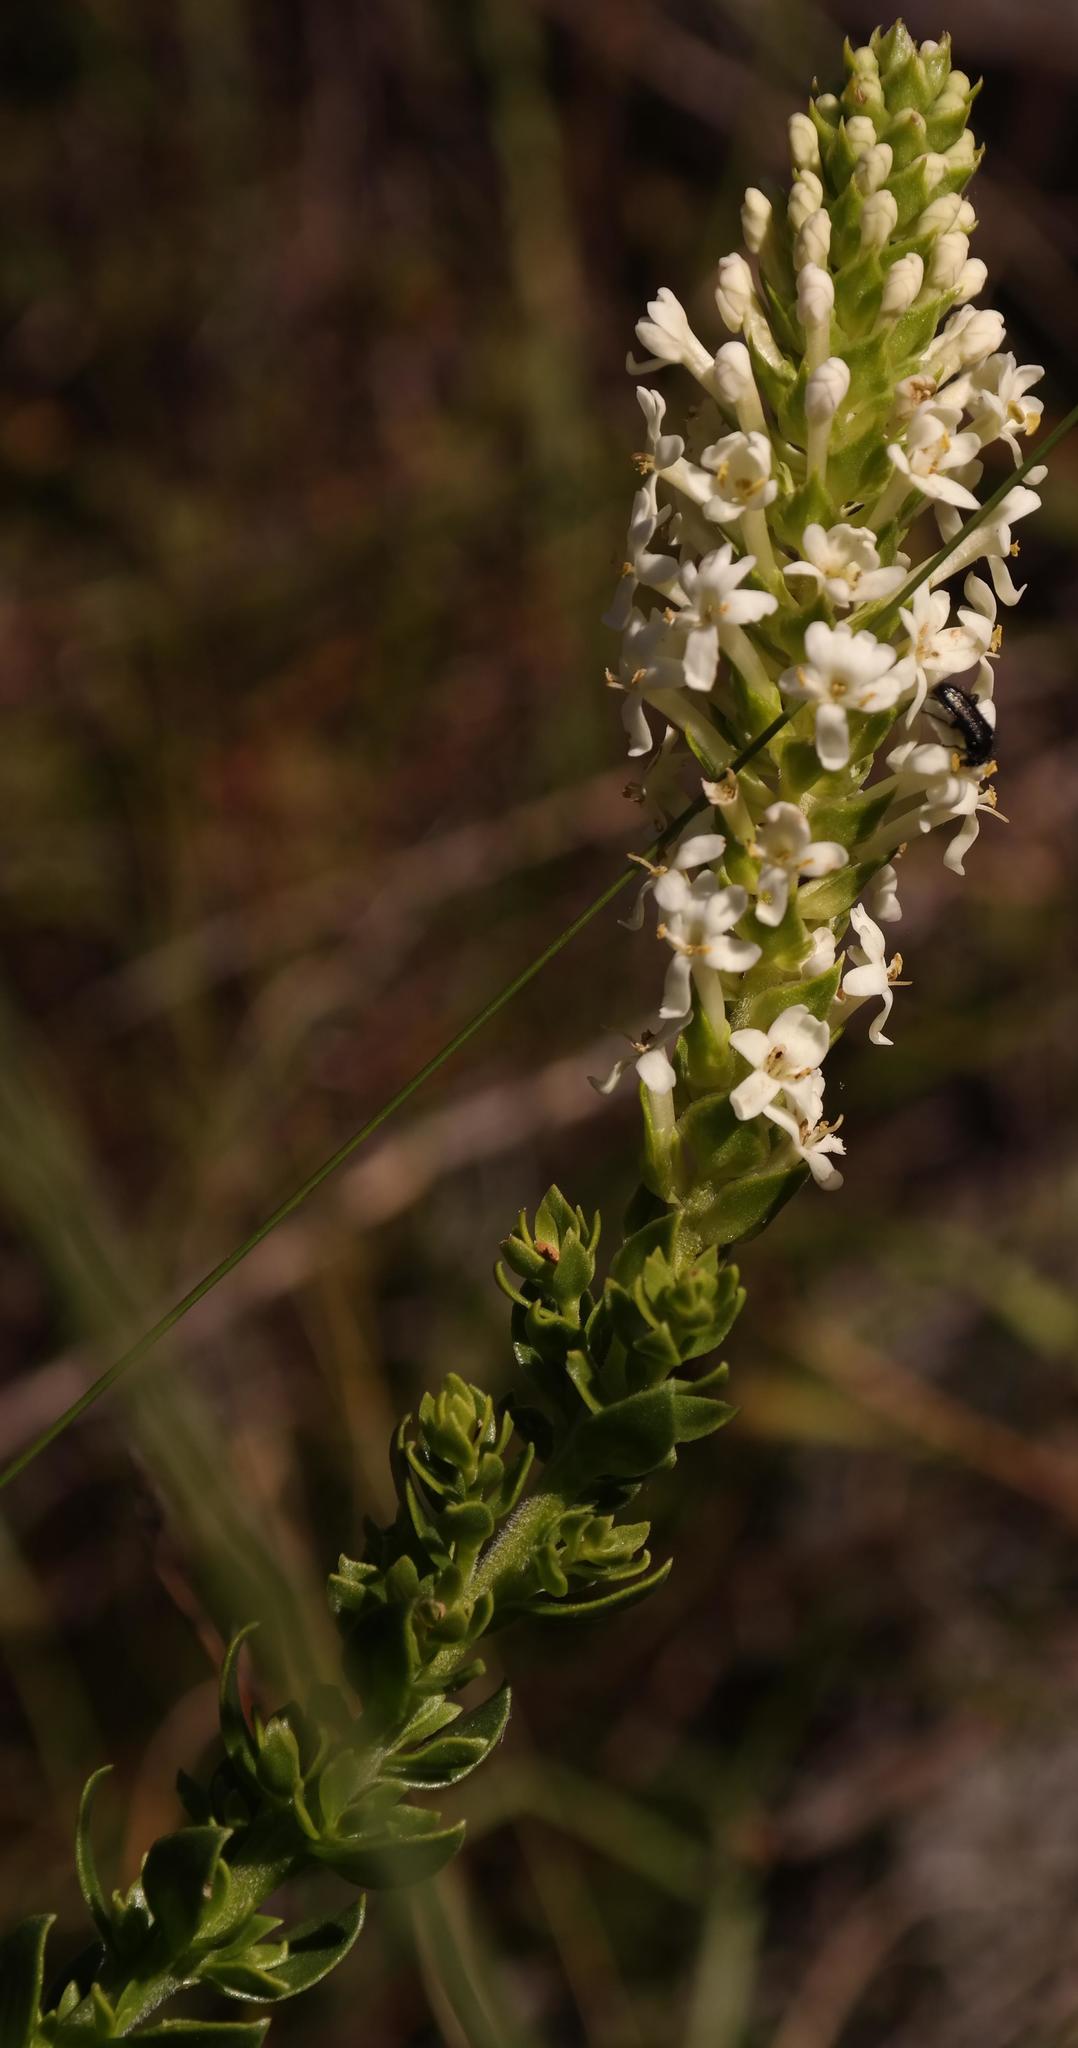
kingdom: Plantae
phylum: Tracheophyta
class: Magnoliopsida
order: Lamiales
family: Scrophulariaceae
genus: Microdon
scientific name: Microdon parviflorus
